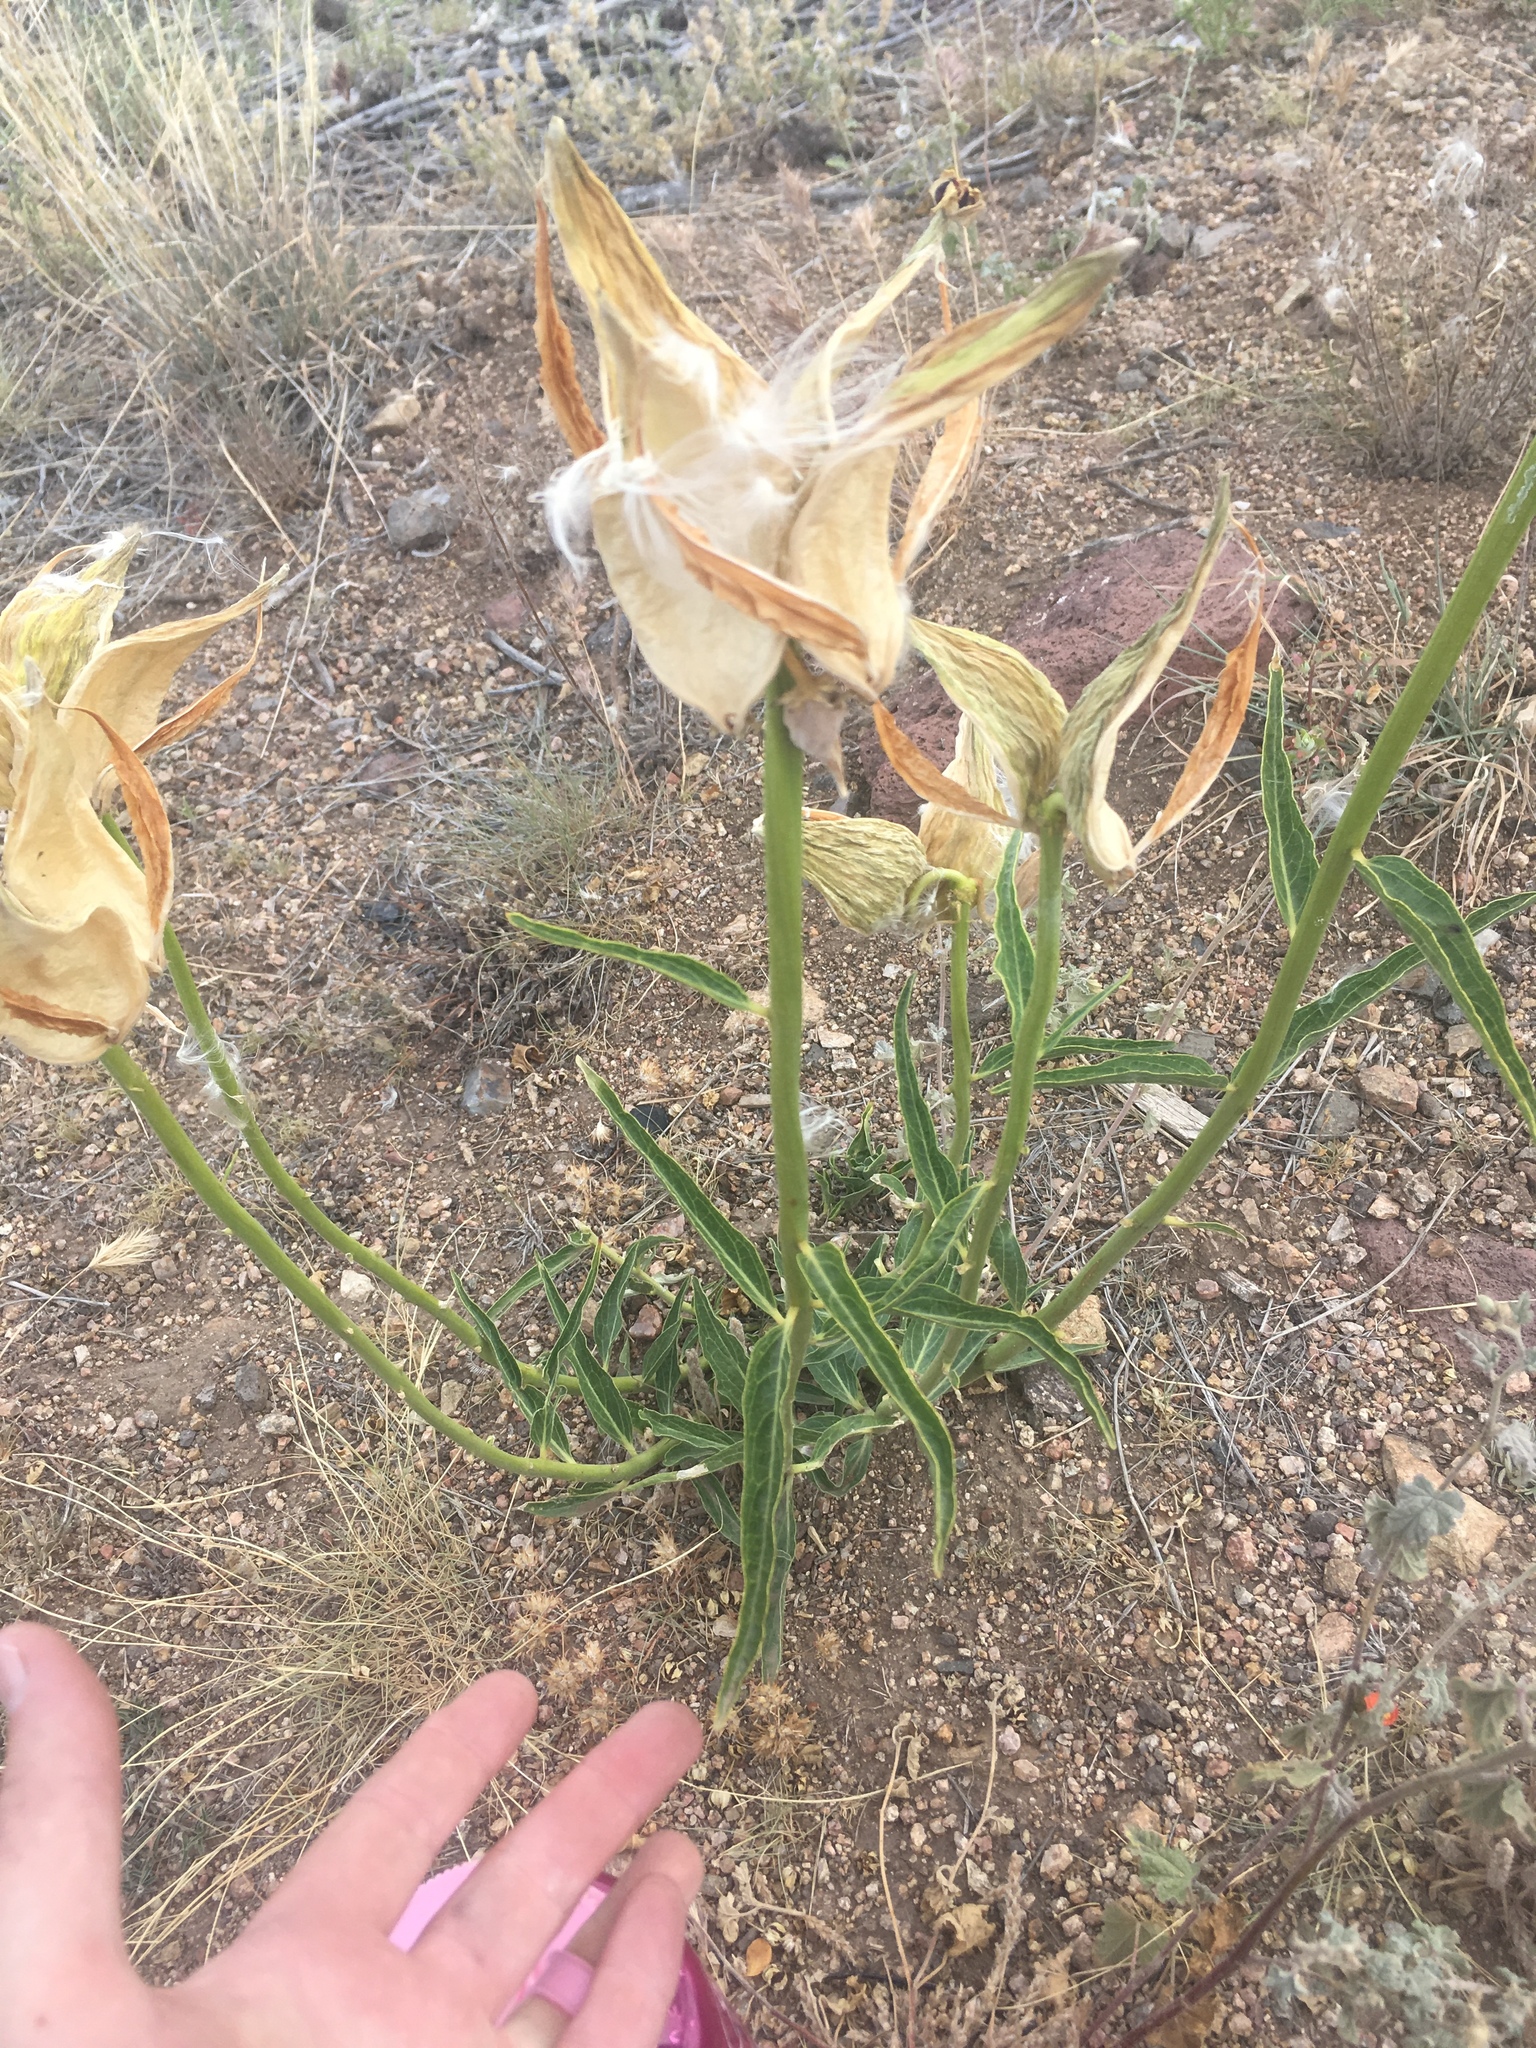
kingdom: Plantae
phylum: Tracheophyta
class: Magnoliopsida
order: Gentianales
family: Apocynaceae
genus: Asclepias
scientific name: Asclepias asperula
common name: Antelope horns
